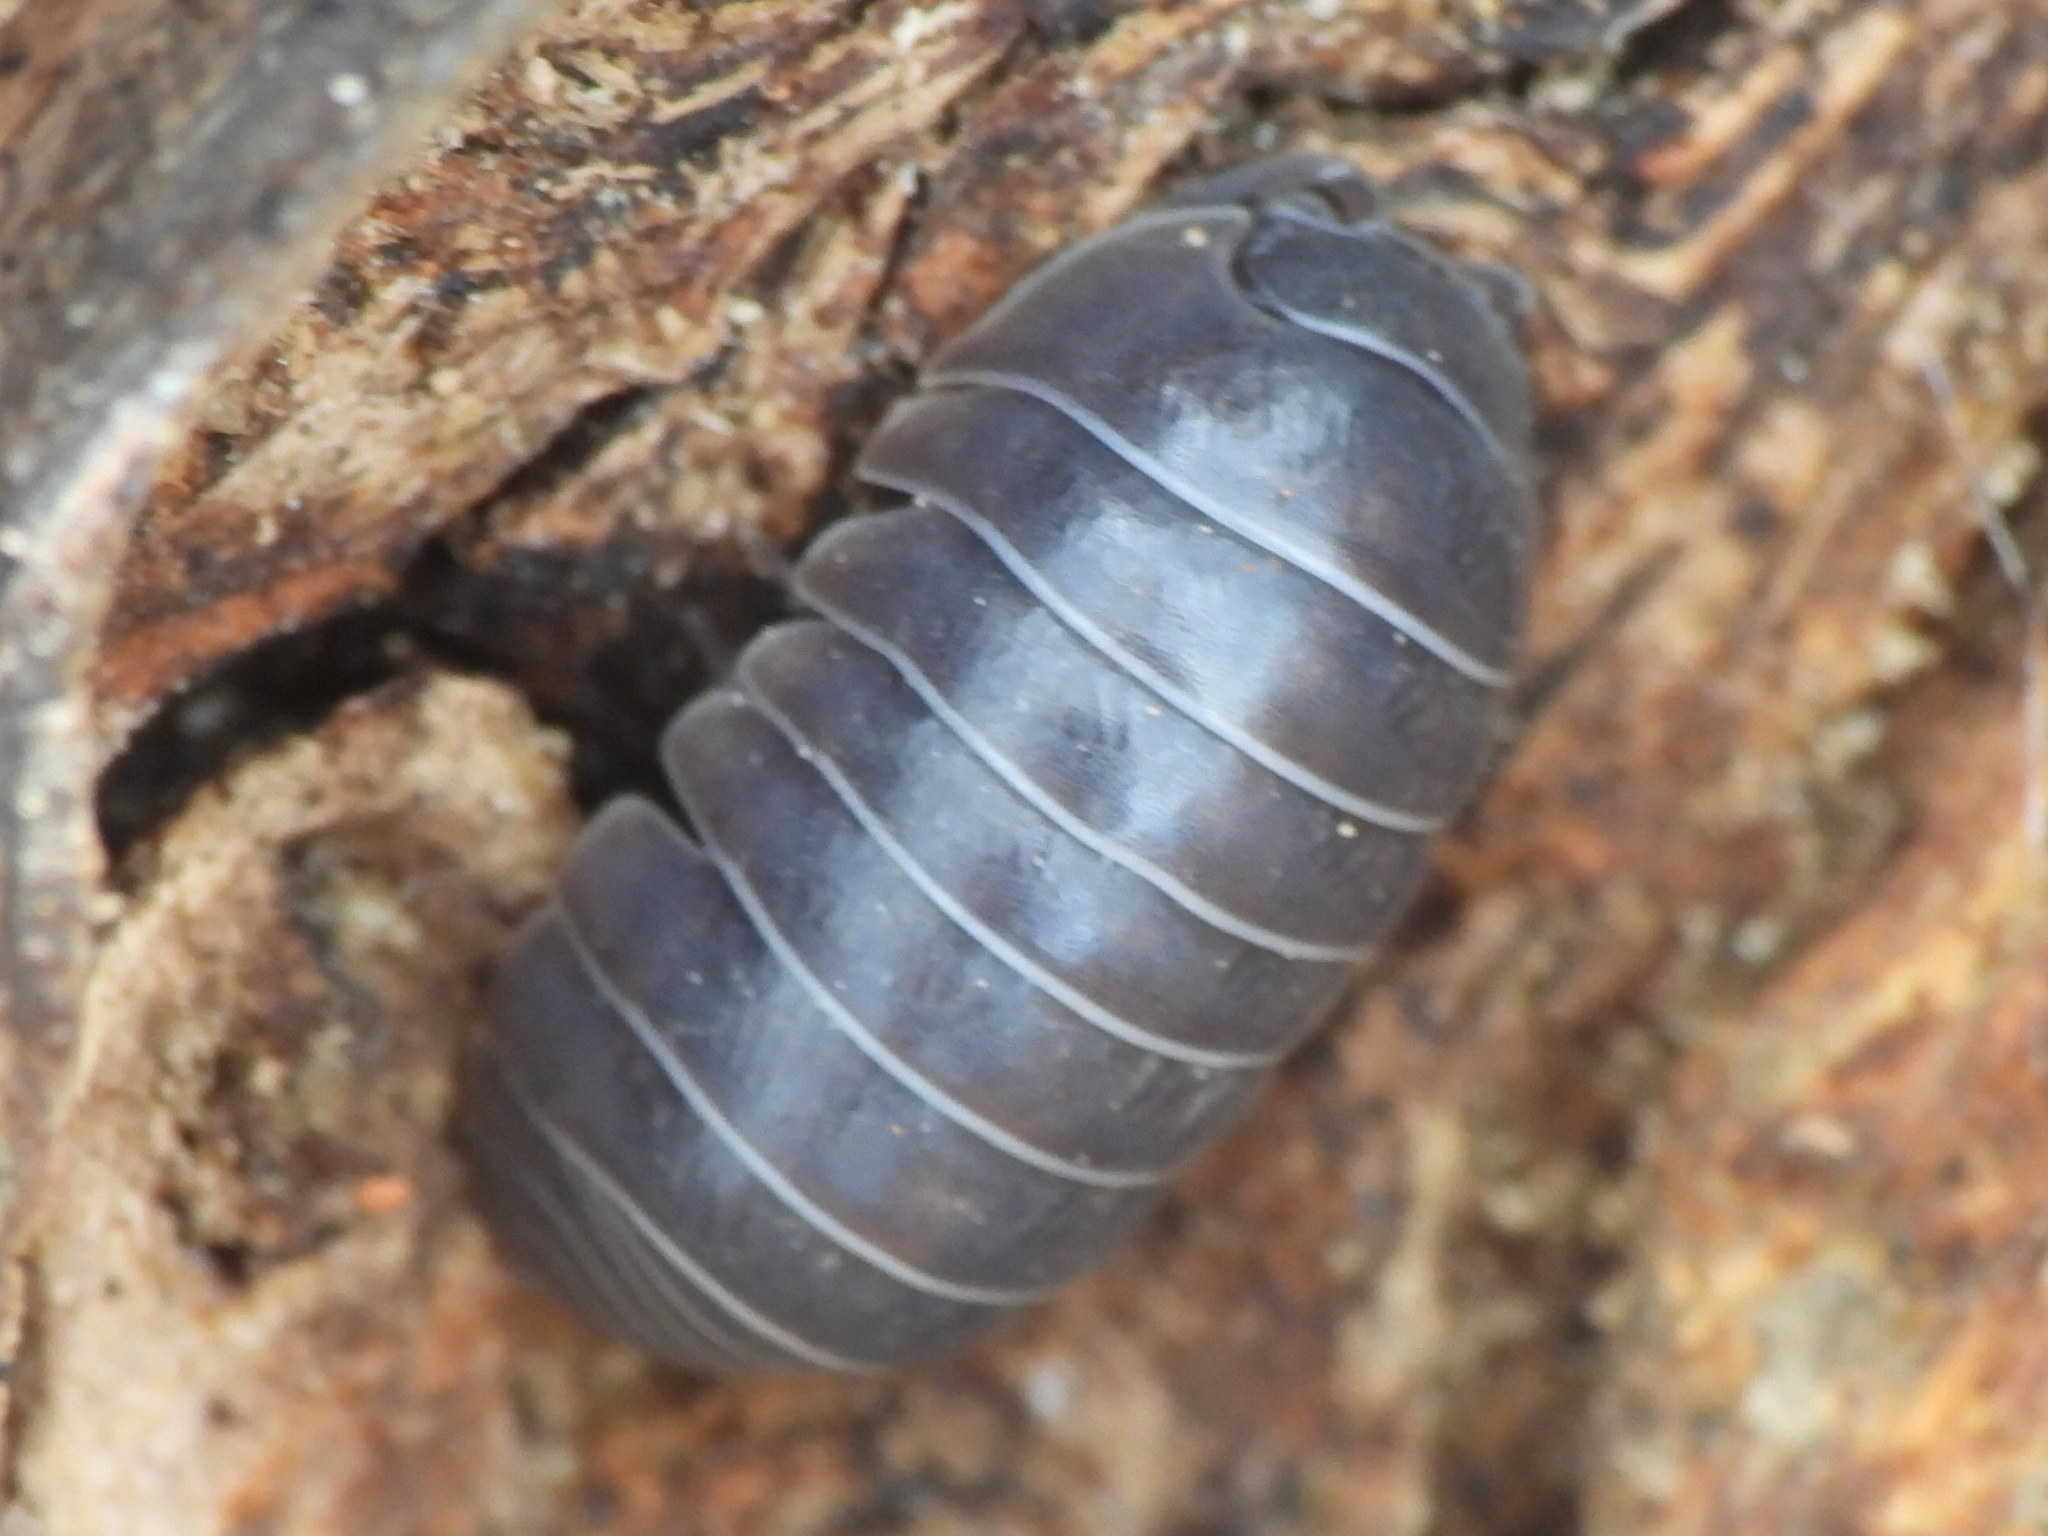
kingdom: Animalia
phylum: Arthropoda
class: Malacostraca
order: Isopoda
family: Armadillidiidae
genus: Armadillidium
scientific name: Armadillidium vulgare
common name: Common pill woodlouse
